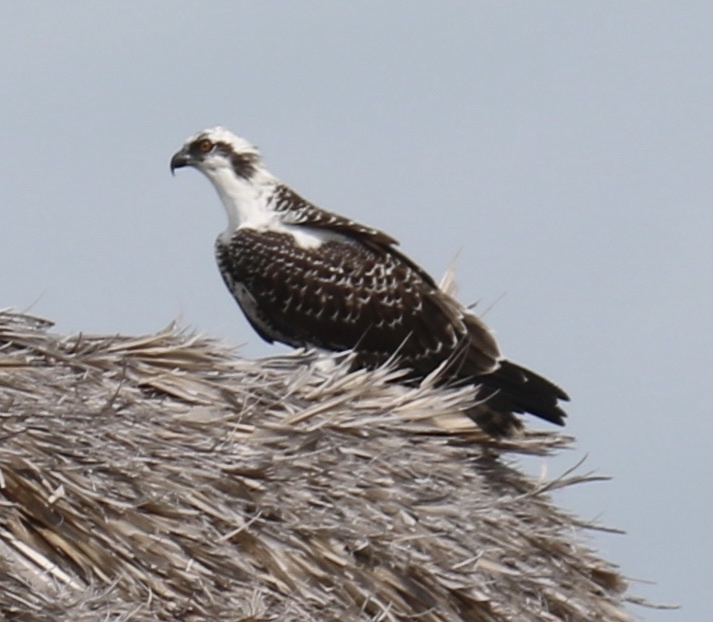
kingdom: Animalia
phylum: Chordata
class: Aves
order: Accipitriformes
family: Pandionidae
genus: Pandion
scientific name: Pandion haliaetus
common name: Osprey
